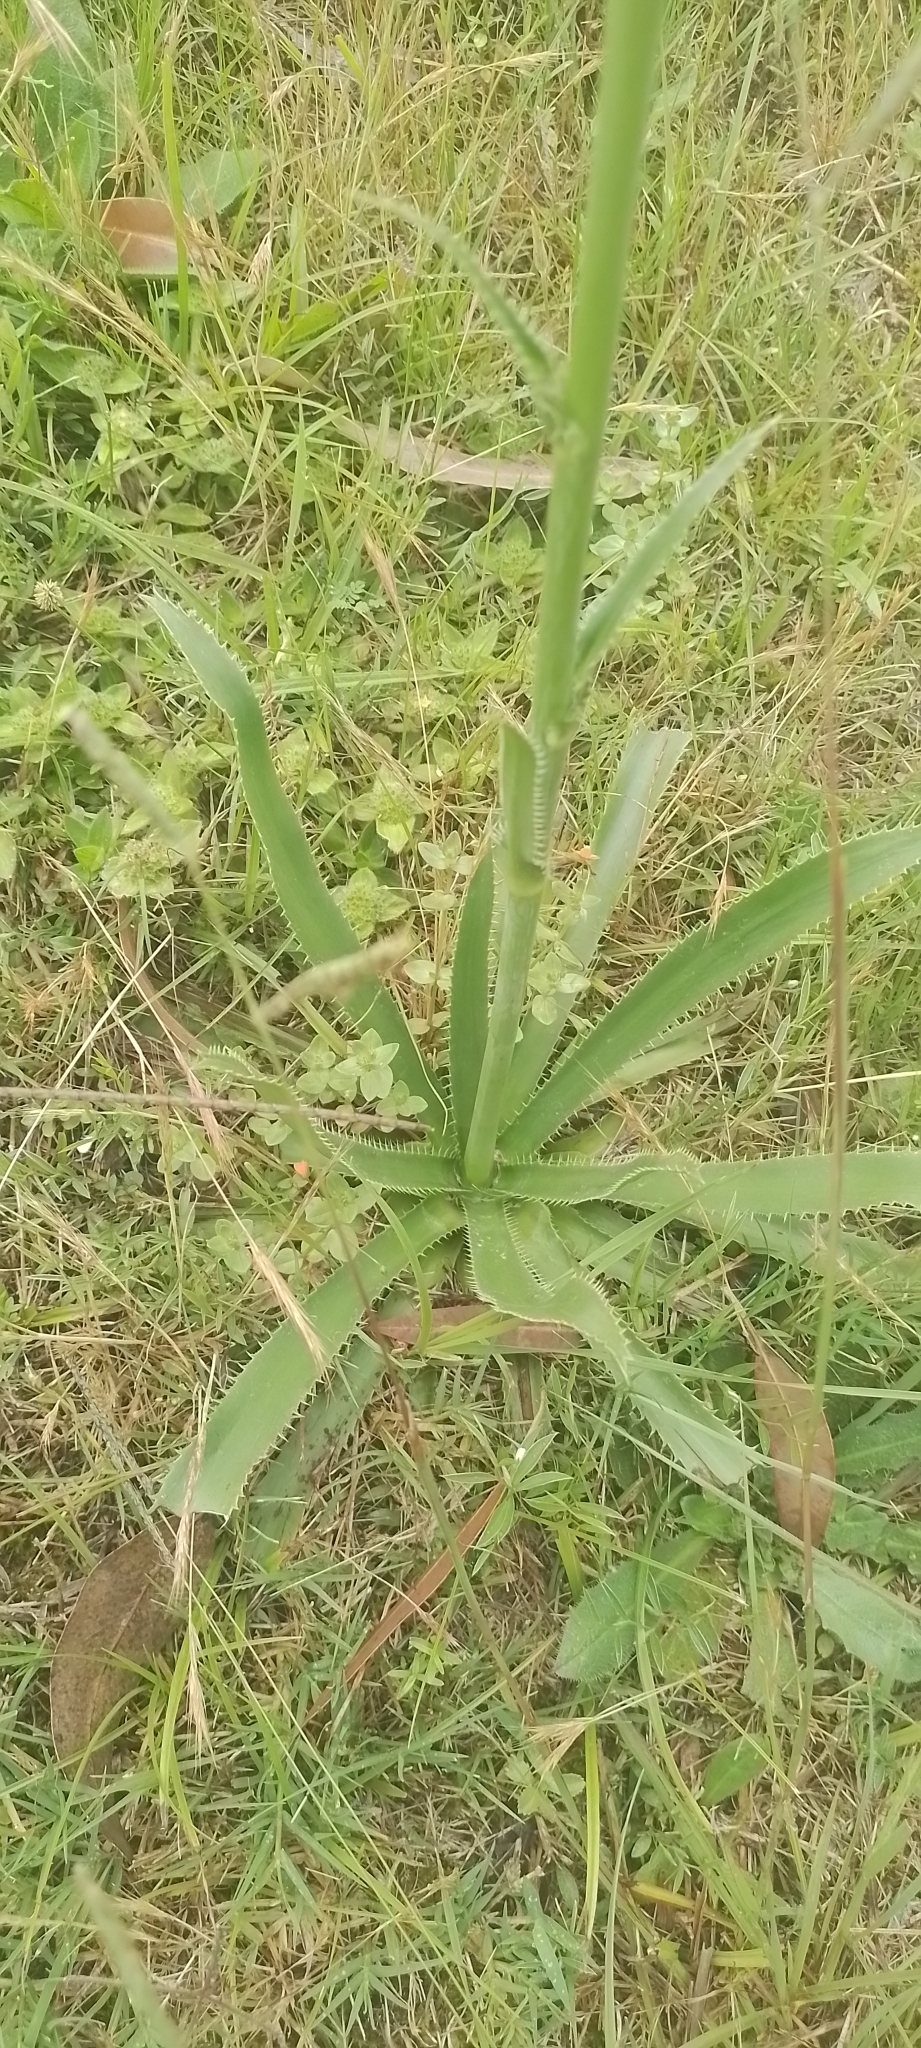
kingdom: Plantae
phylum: Tracheophyta
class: Magnoliopsida
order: Apiales
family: Apiaceae
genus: Eryngium
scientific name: Eryngium elegans
